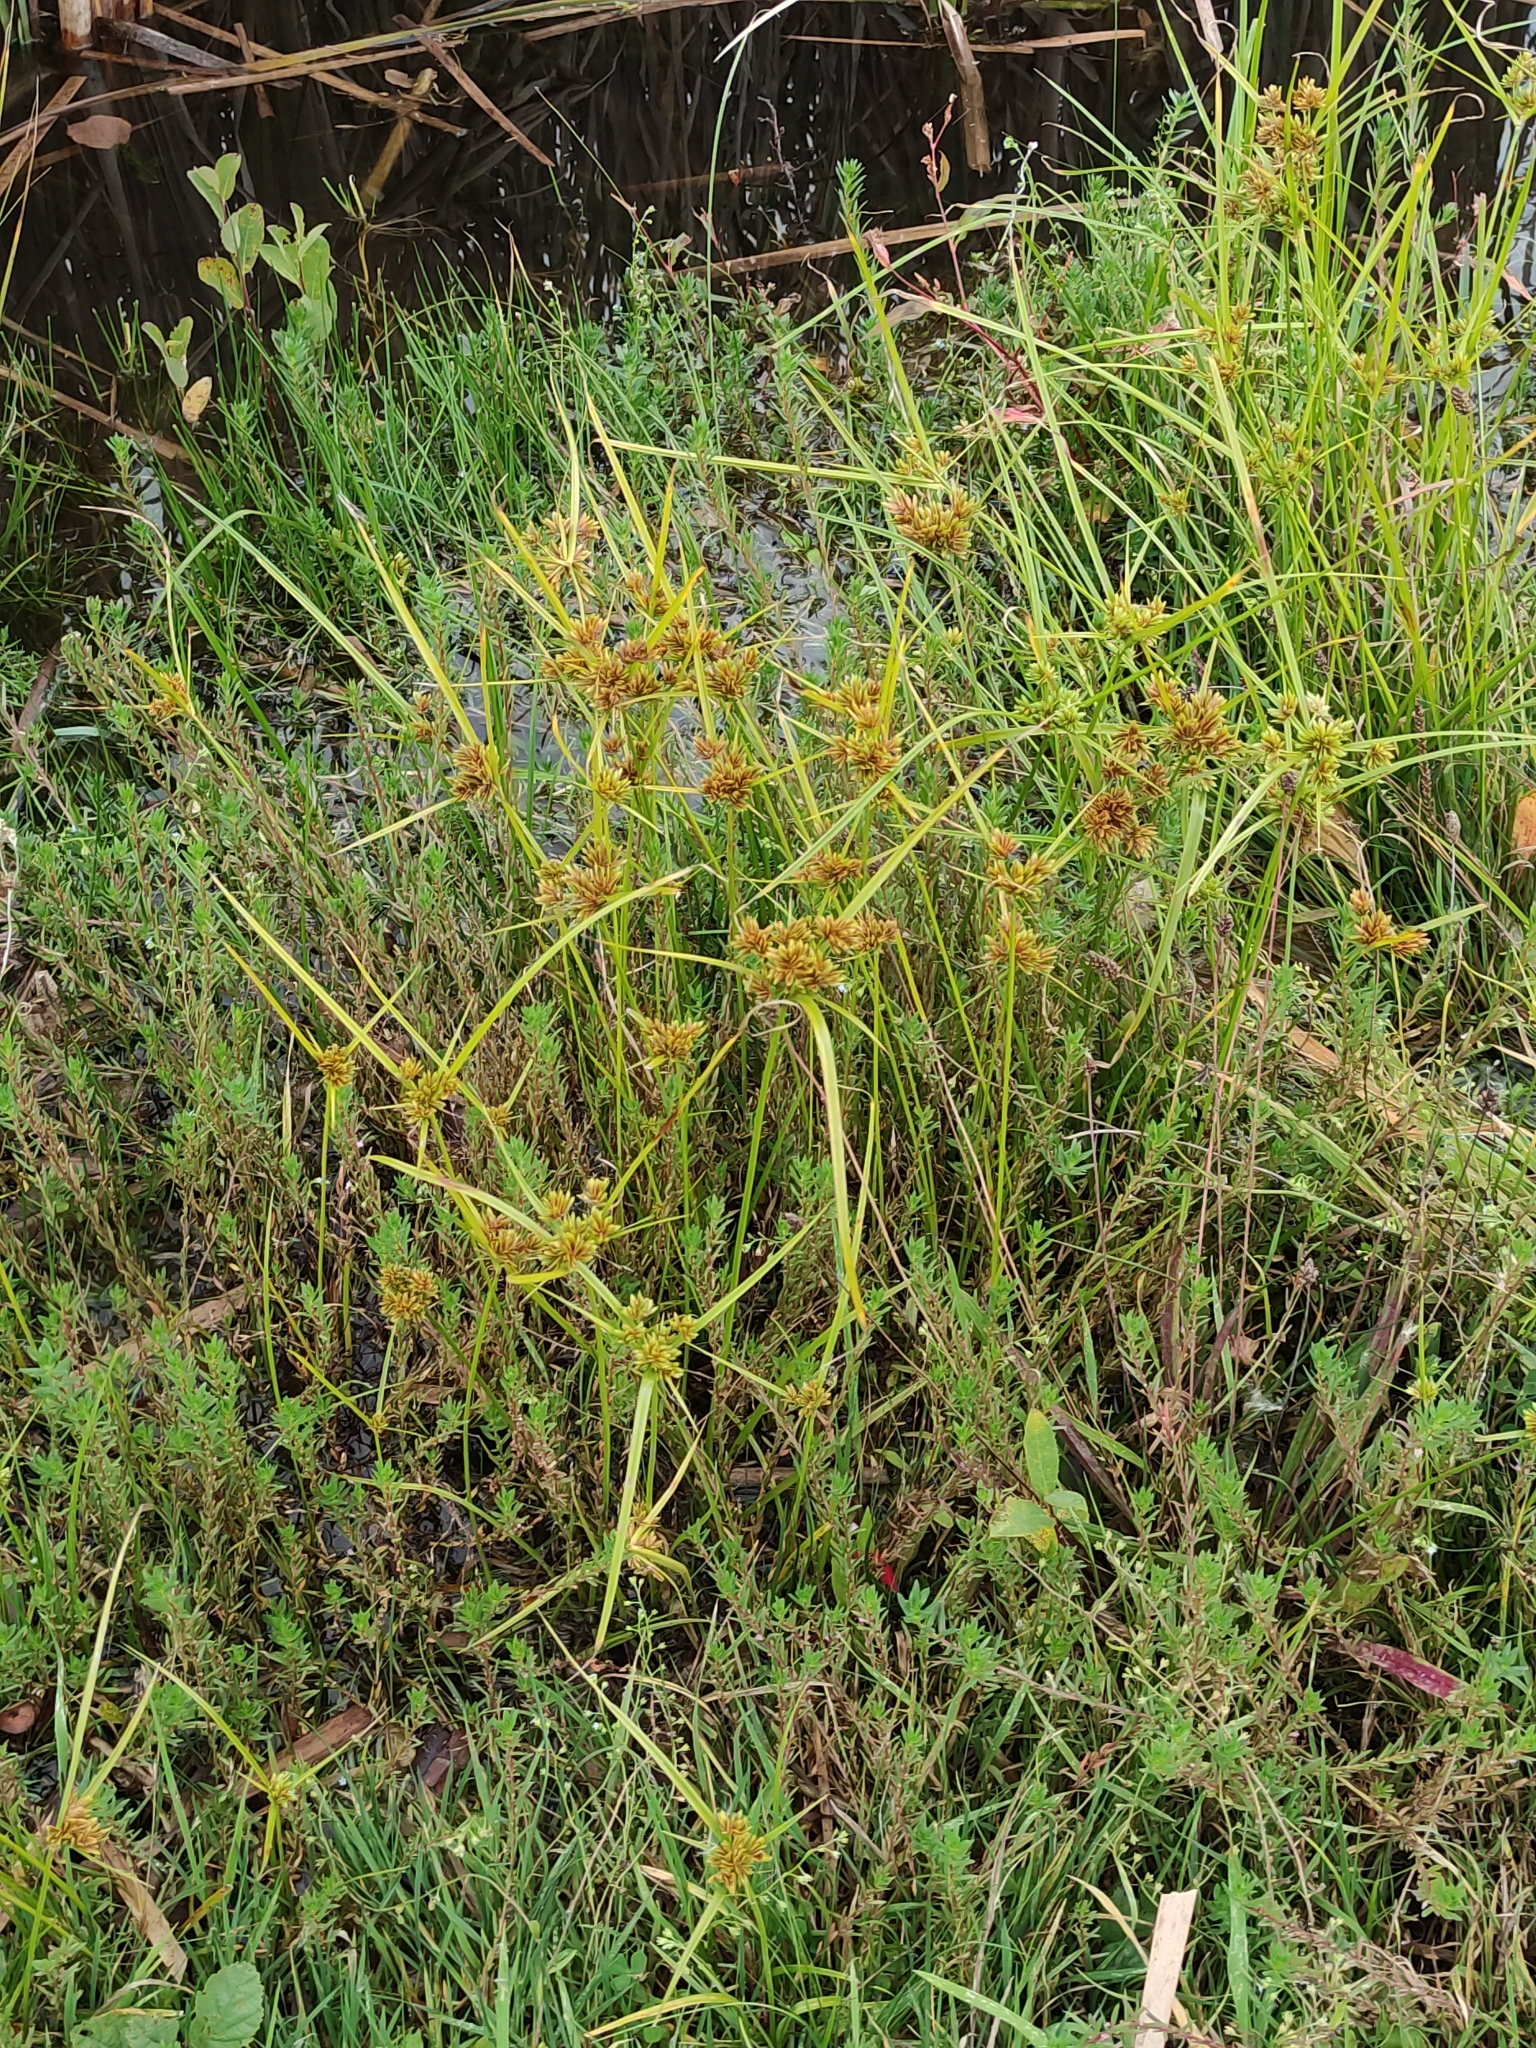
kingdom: Plantae
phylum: Tracheophyta
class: Liliopsida
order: Poales
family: Cyperaceae
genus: Cyperus
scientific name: Cyperus eragrostis
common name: Tall flatsedge
